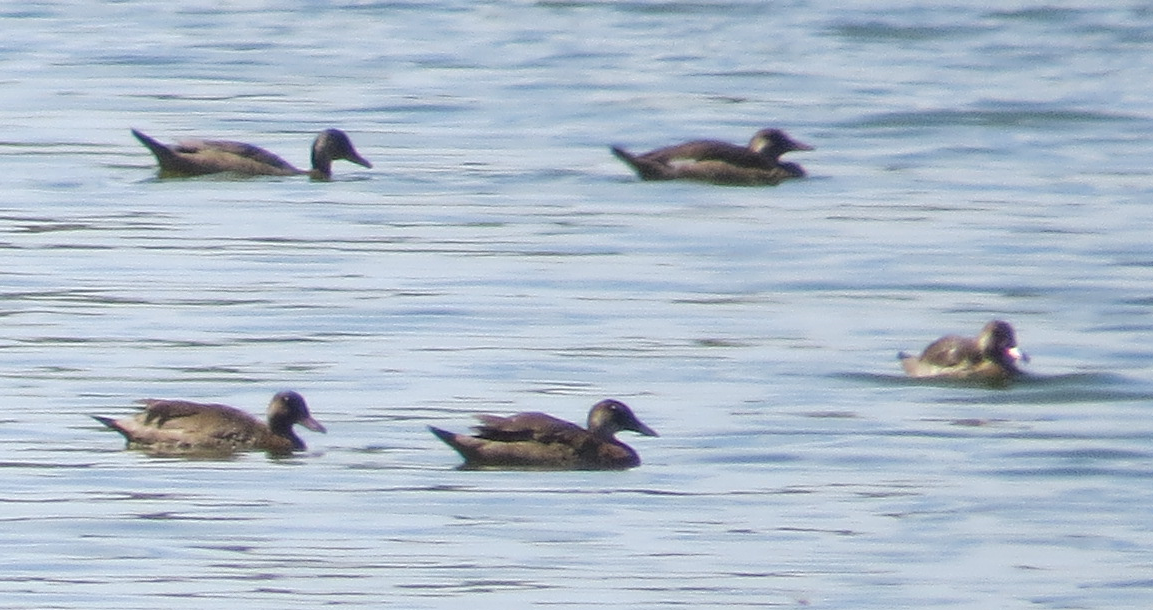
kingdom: Animalia
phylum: Chordata
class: Aves
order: Anseriformes
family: Anatidae
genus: Amazonetta
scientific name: Amazonetta brasiliensis
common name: Brazilian teal
